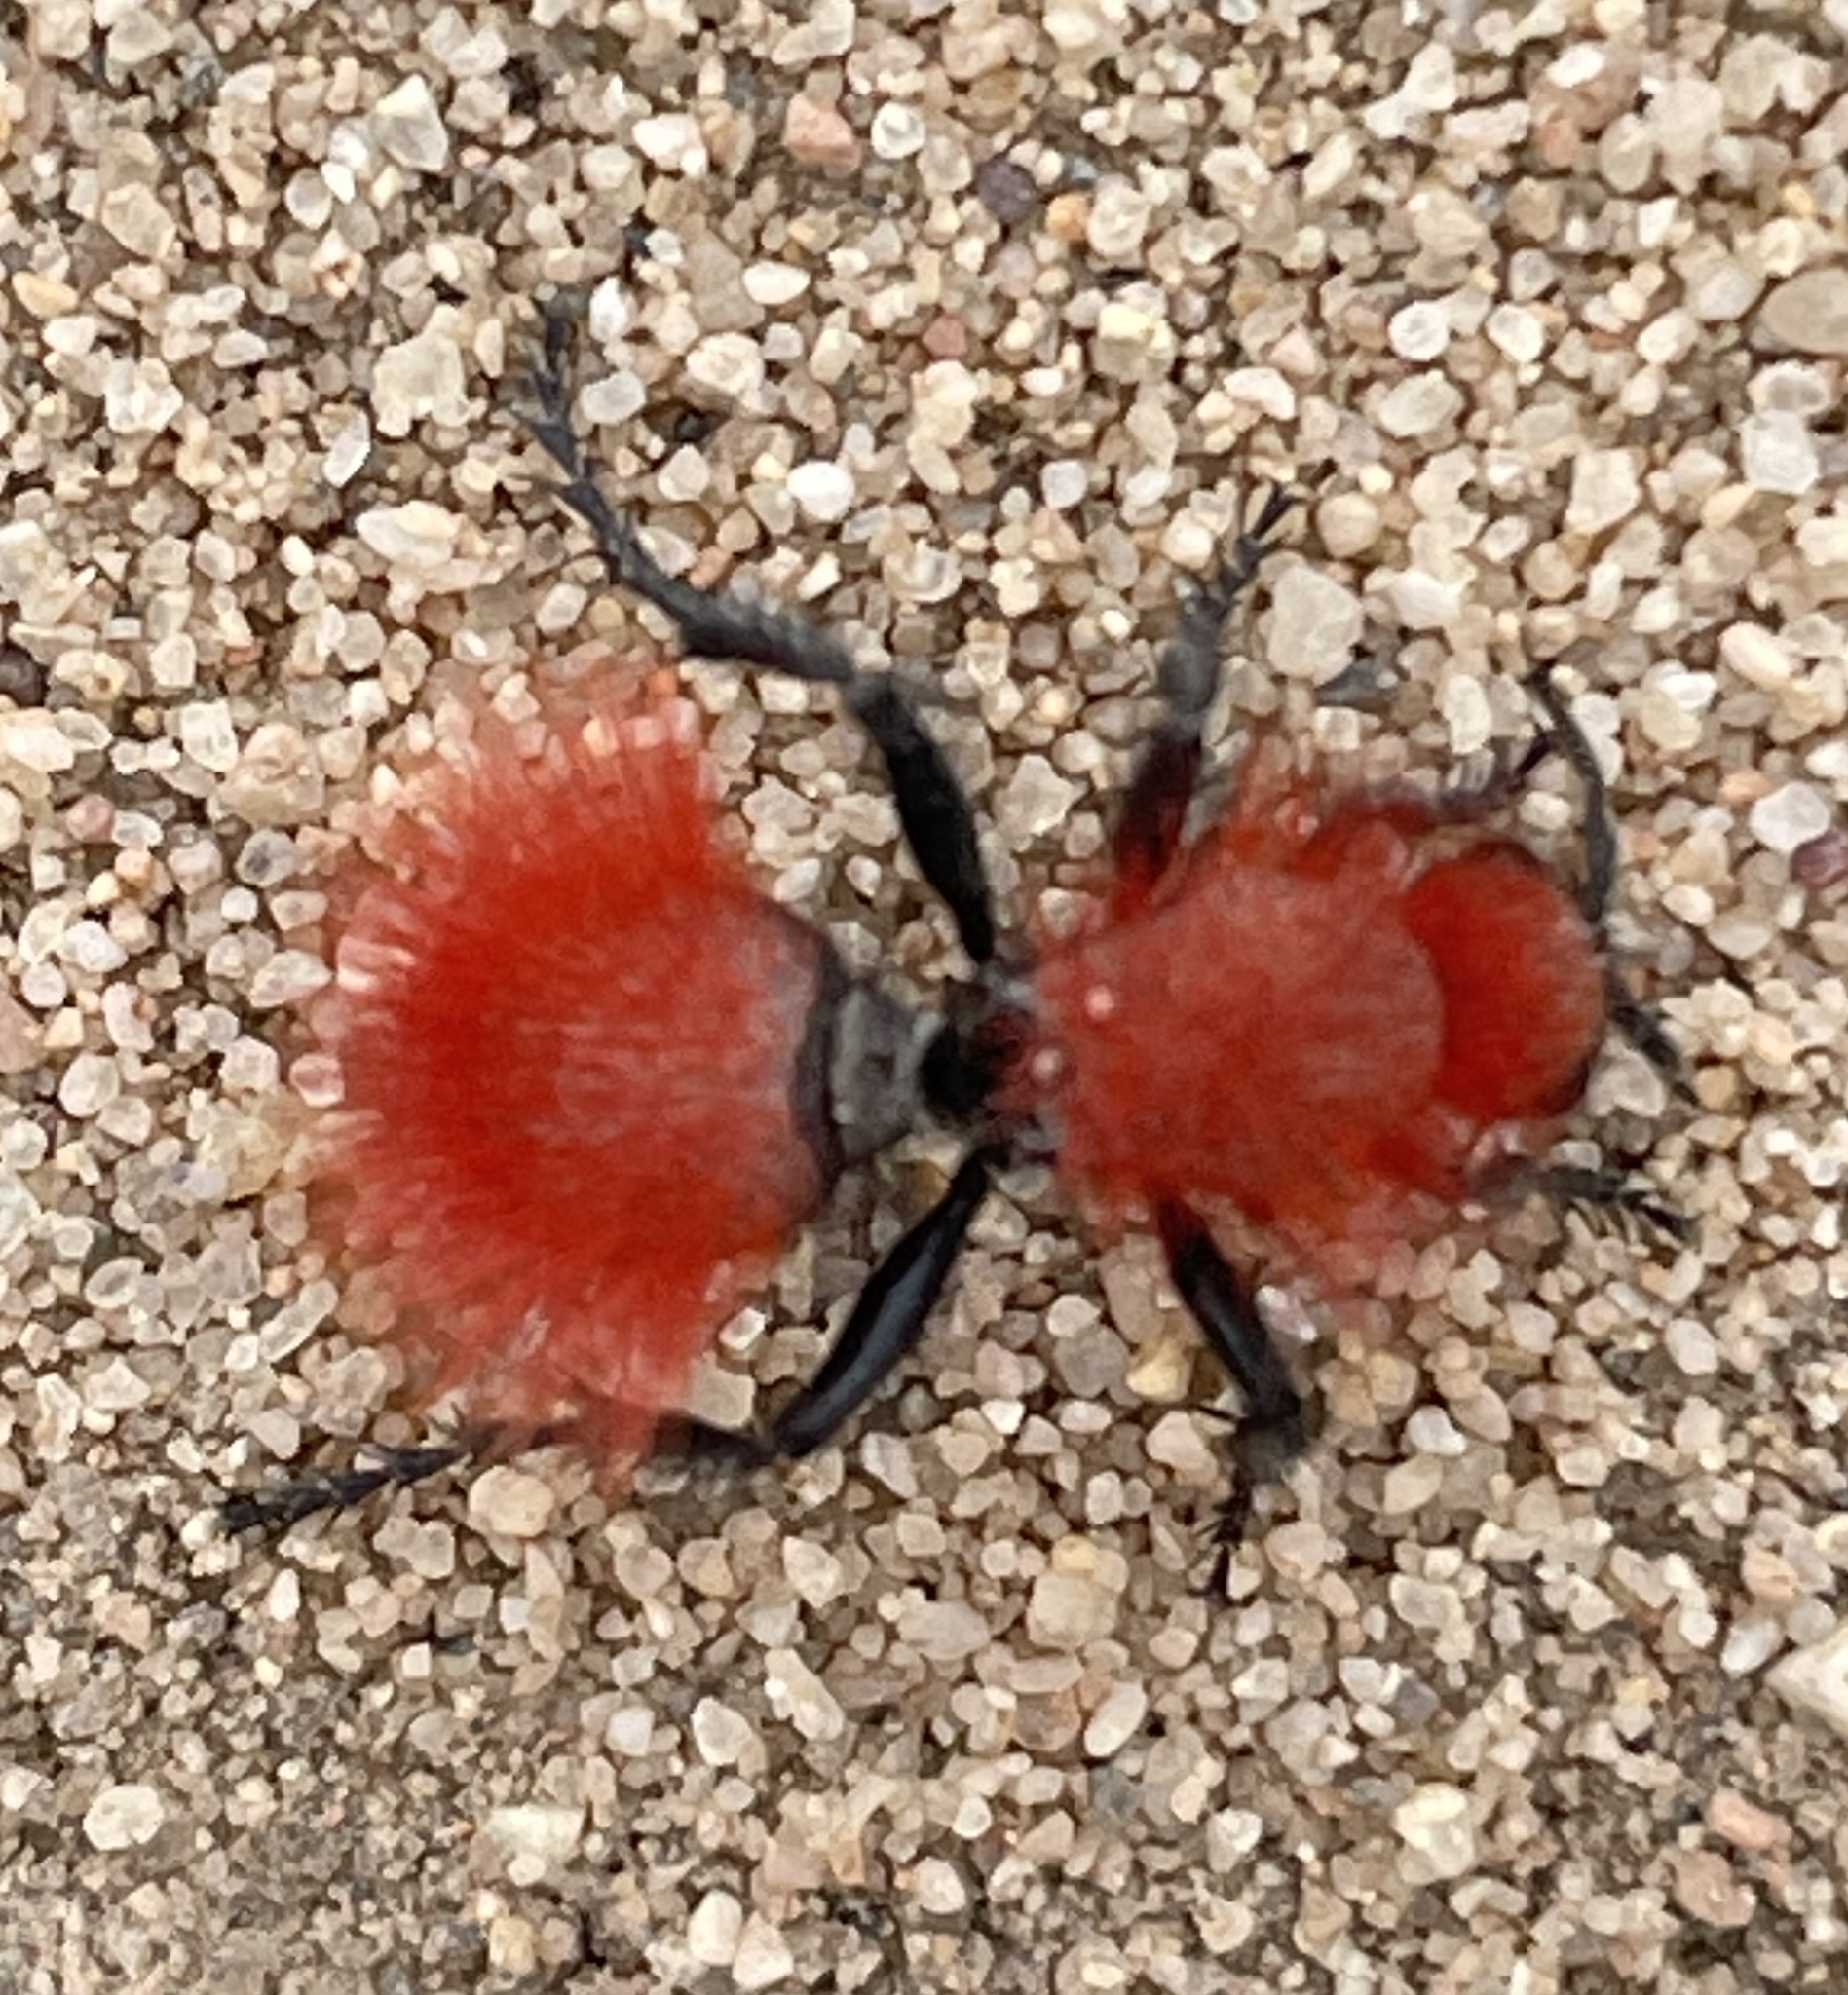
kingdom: Animalia
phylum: Arthropoda
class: Insecta
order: Hymenoptera
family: Mutillidae
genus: Dasymutilla
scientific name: Dasymutilla flammifera
